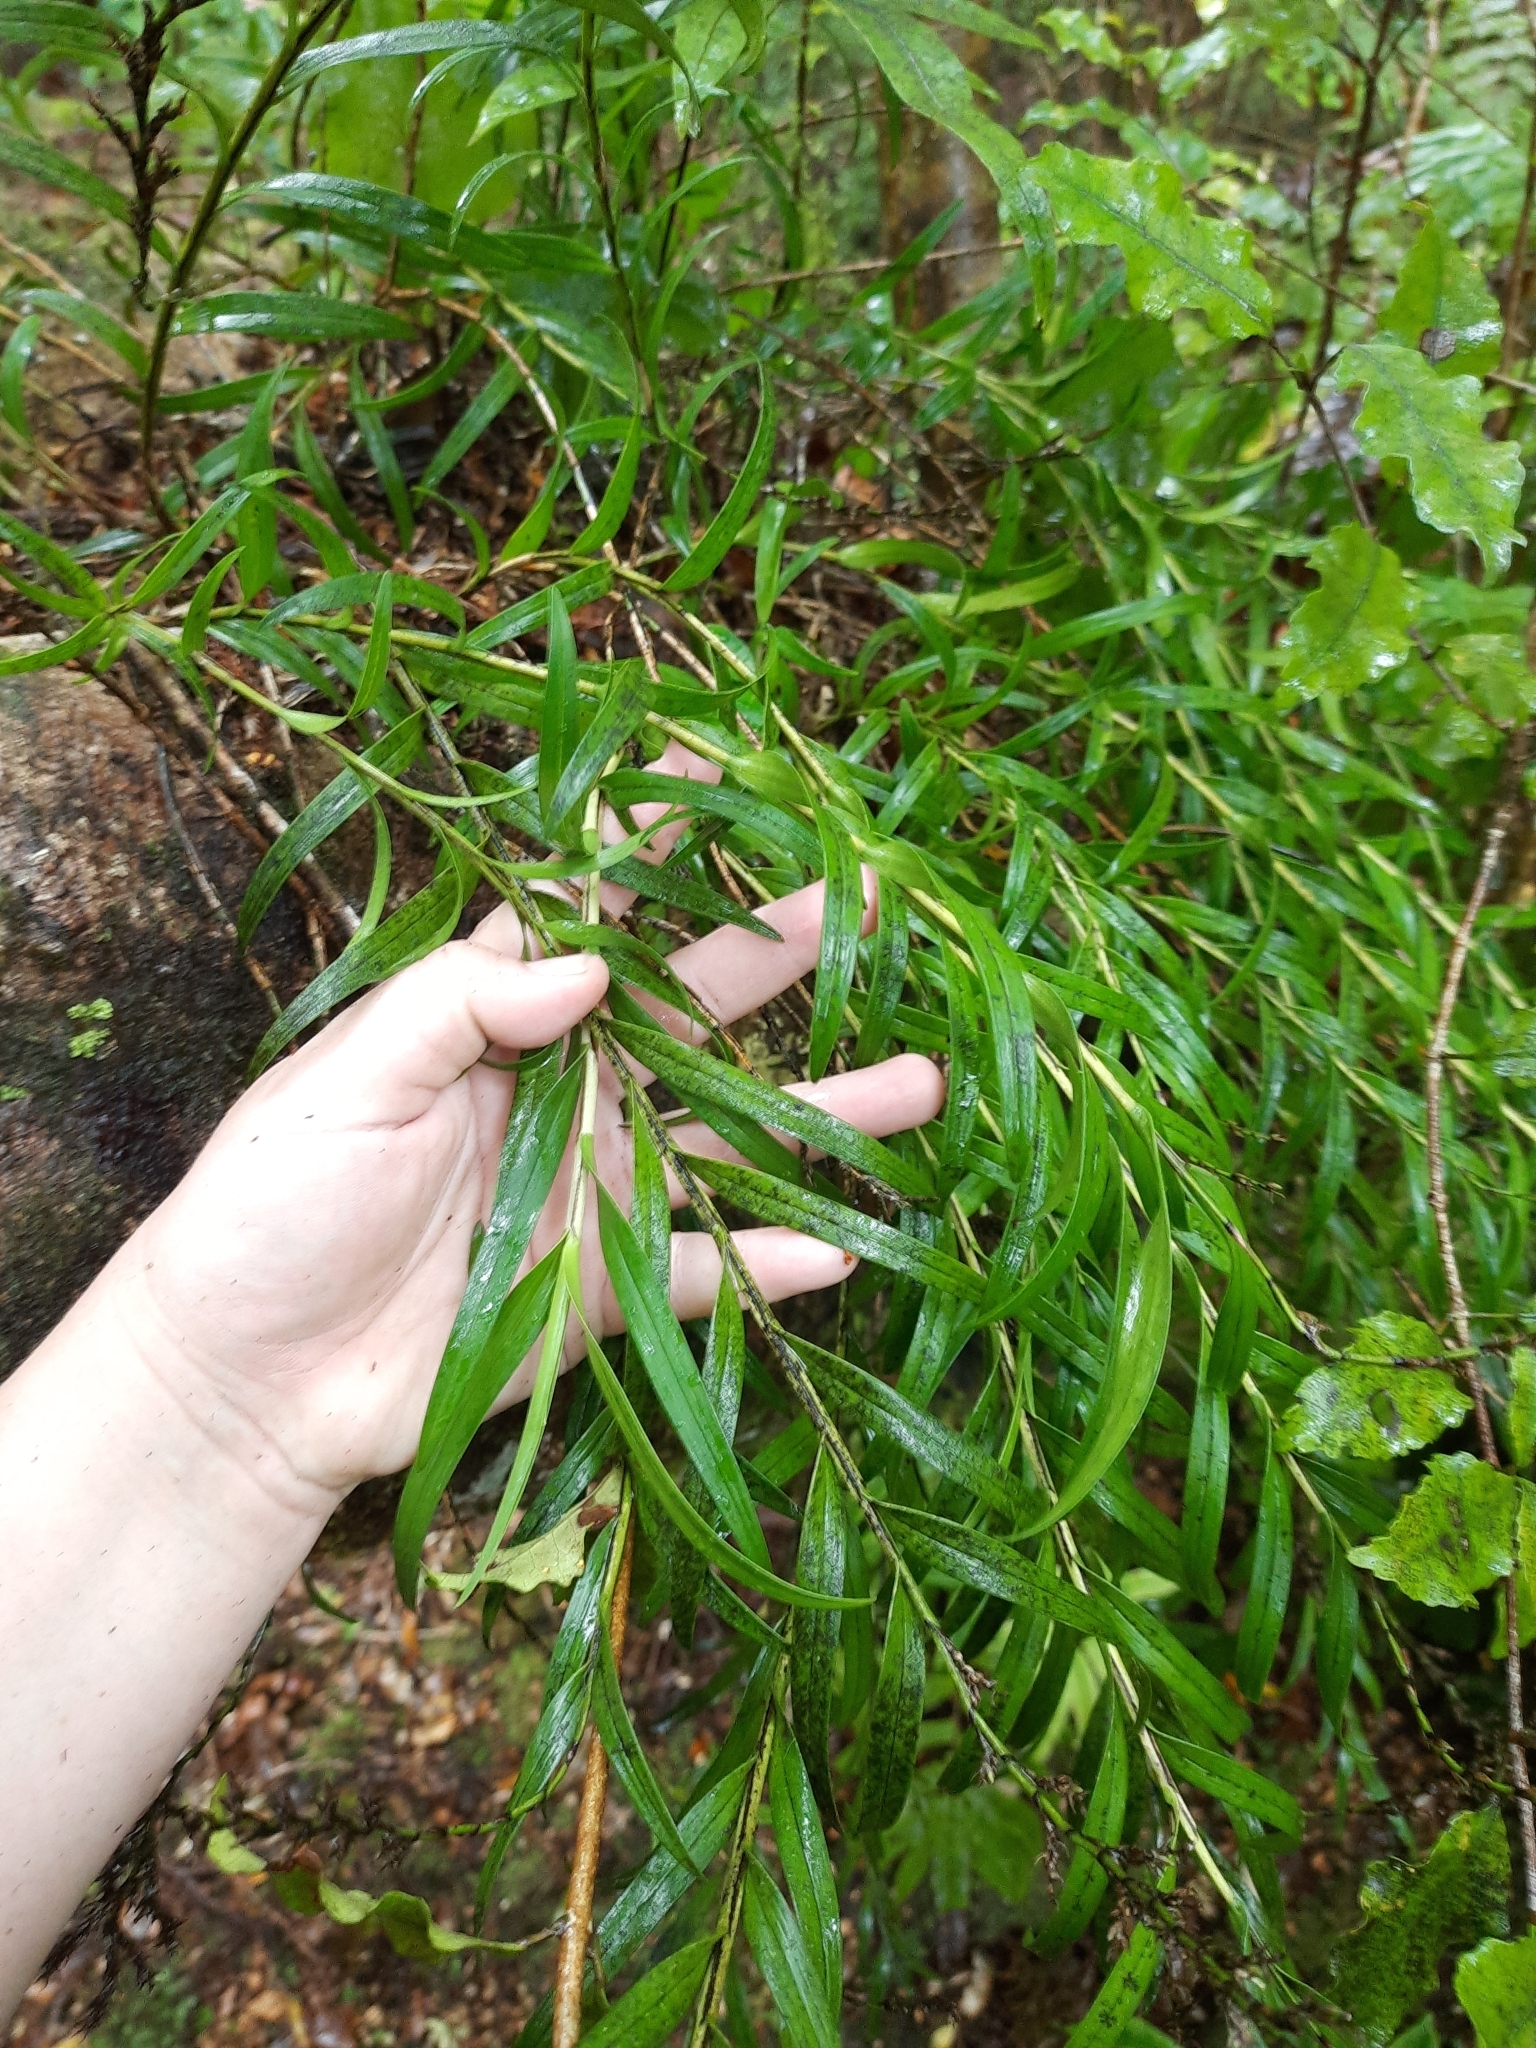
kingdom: Plantae
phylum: Tracheophyta
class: Liliopsida
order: Asparagales
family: Orchidaceae
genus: Earina
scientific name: Earina autumnalis
